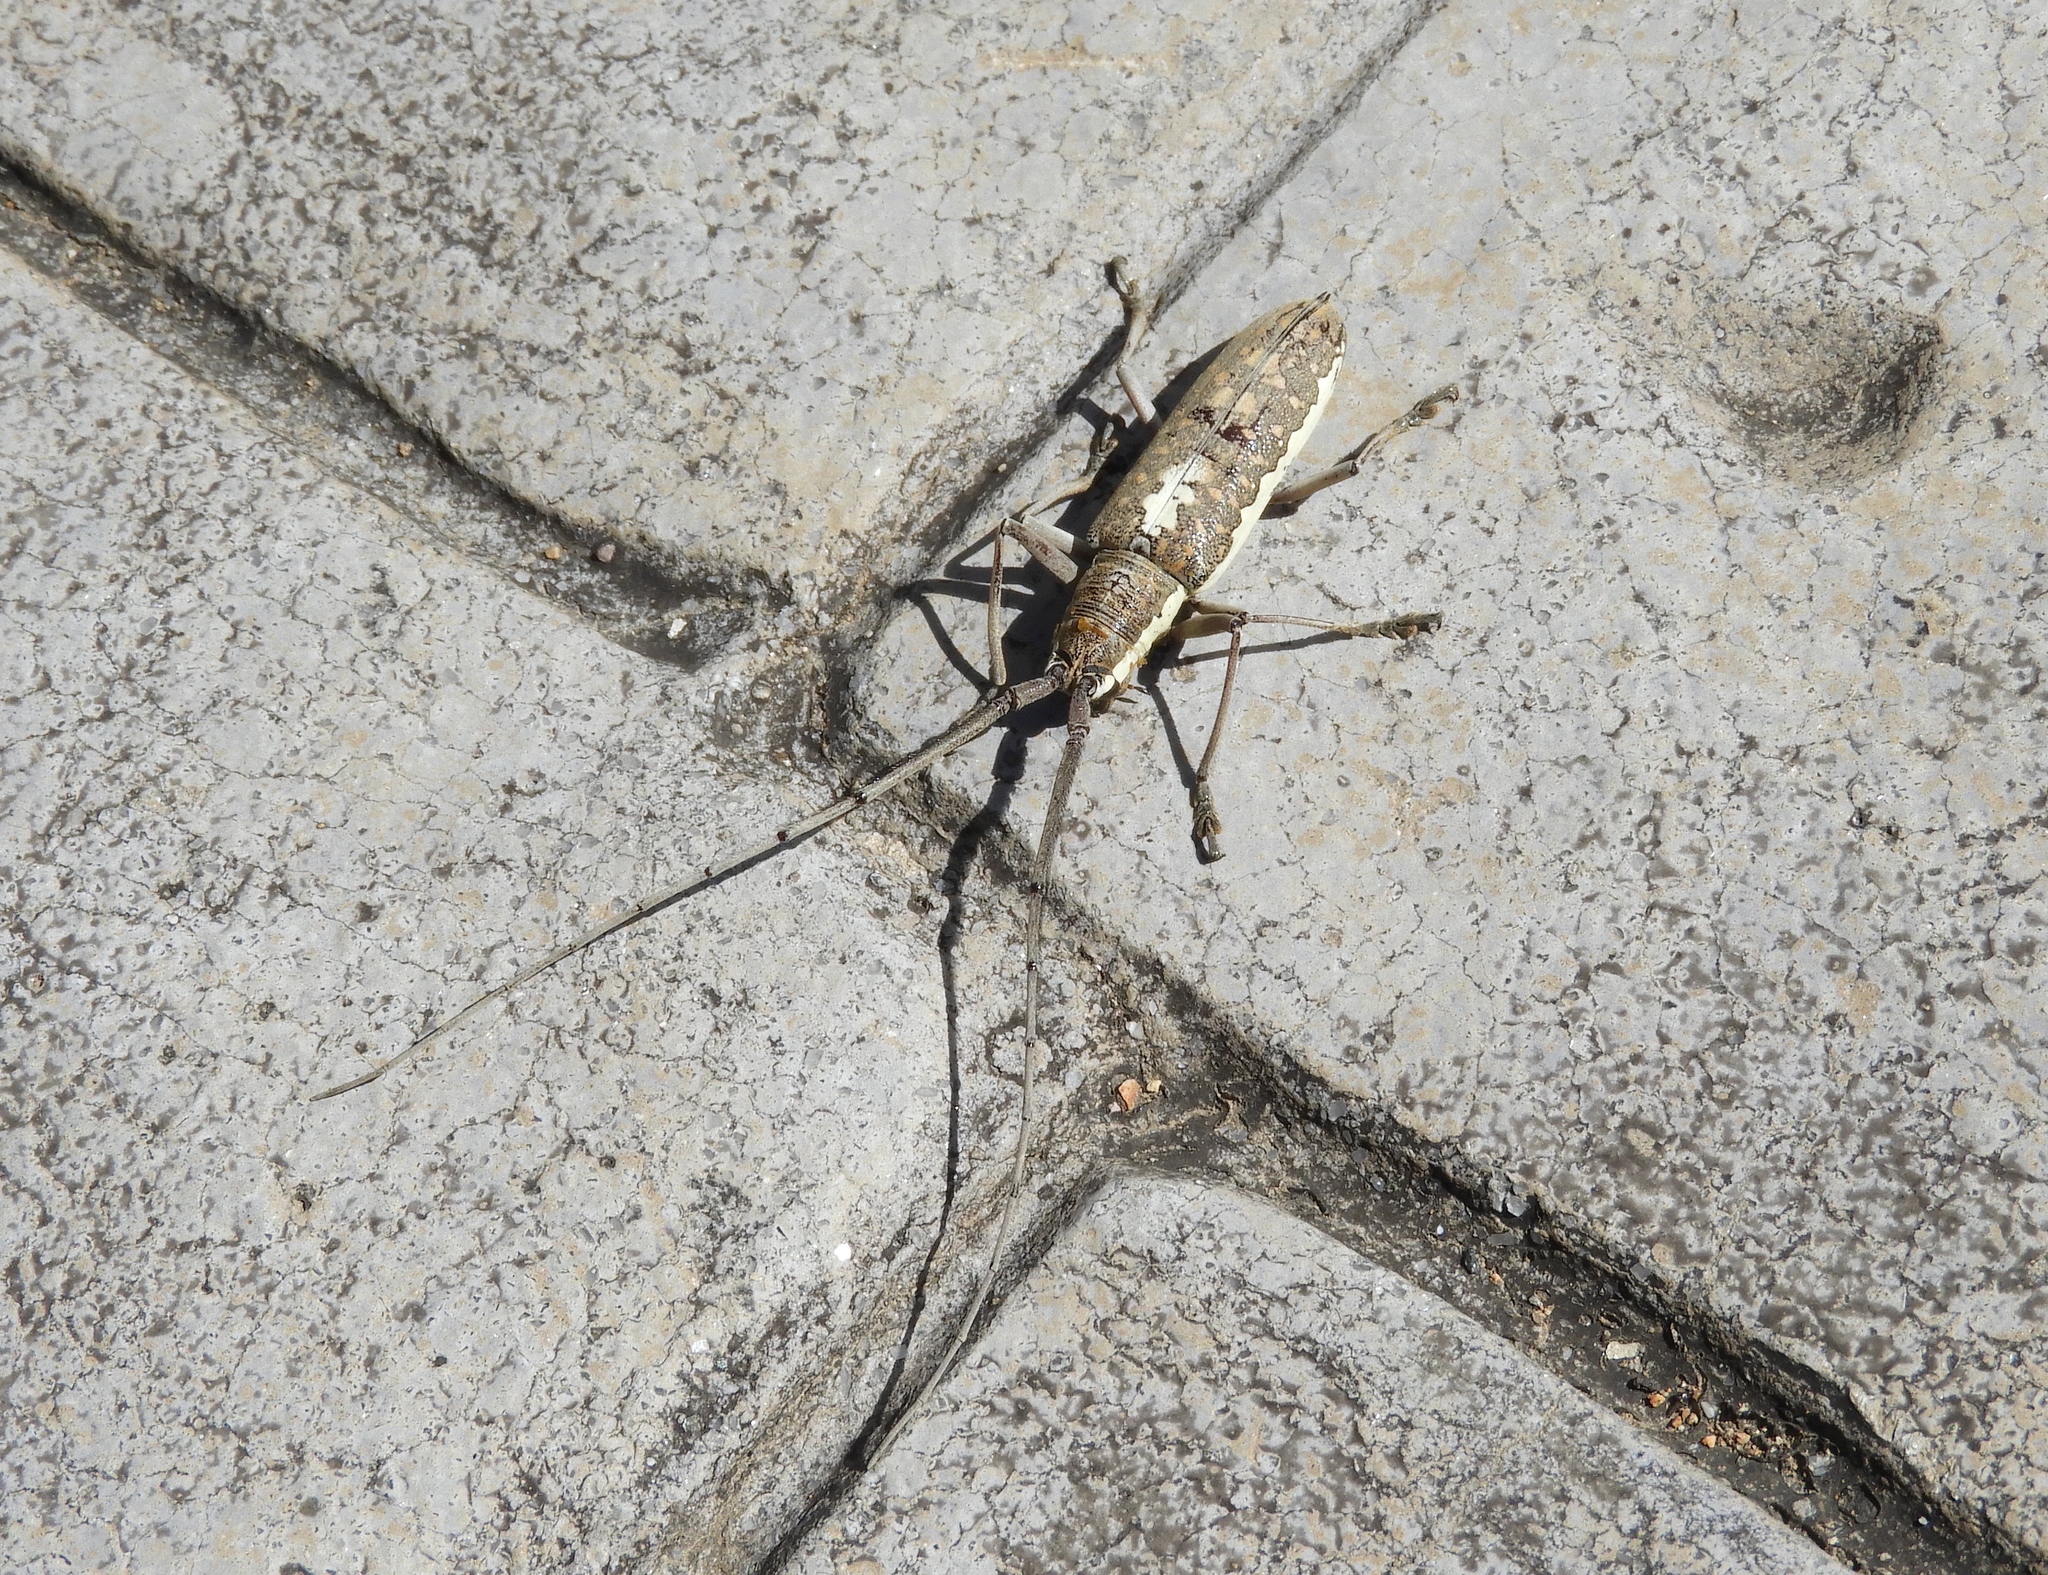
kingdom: Animalia
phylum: Arthropoda
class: Insecta
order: Coleoptera
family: Cerambycidae
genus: Neoptychodes
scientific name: Neoptychodes trilineatus
